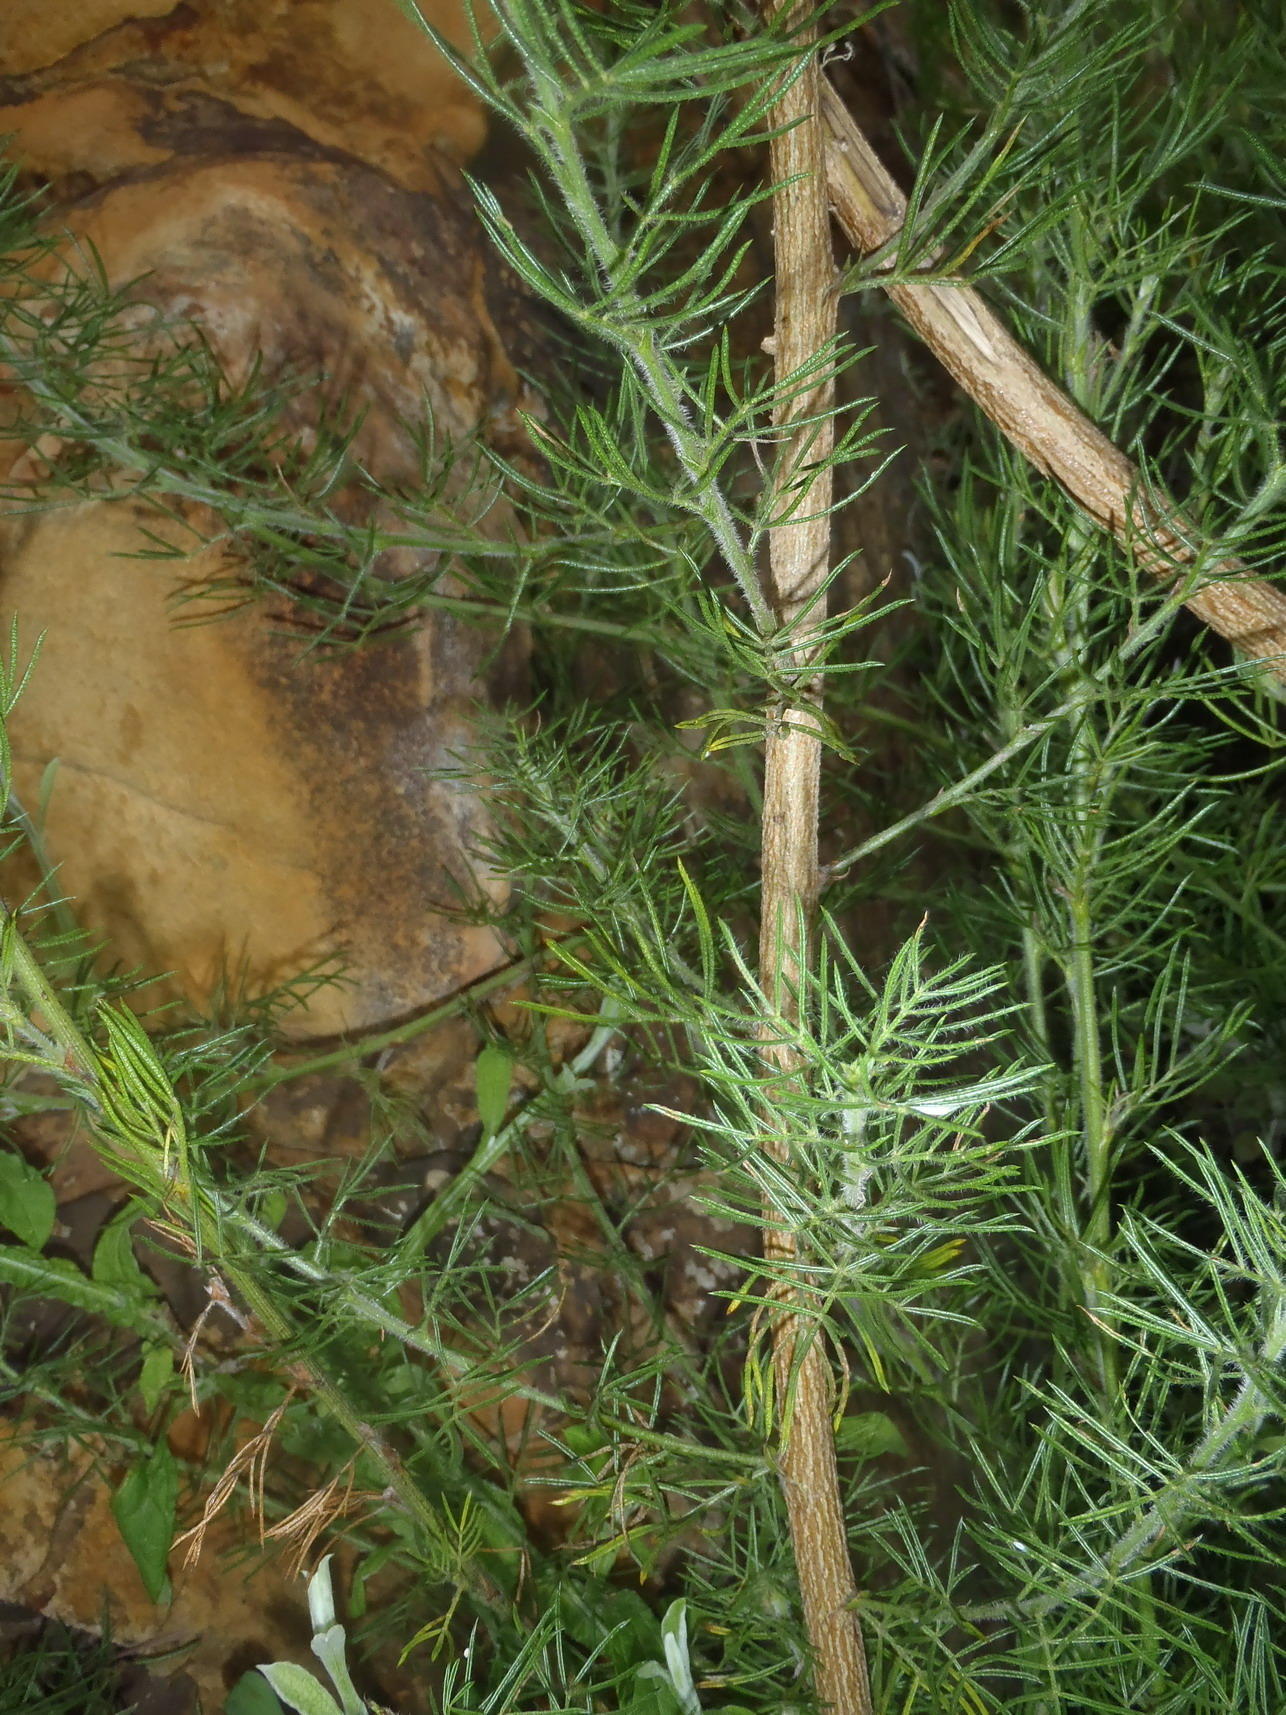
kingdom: Plantae
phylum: Tracheophyta
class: Magnoliopsida
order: Fabales
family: Fabaceae
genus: Psoralea
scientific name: Psoralea floccosa
